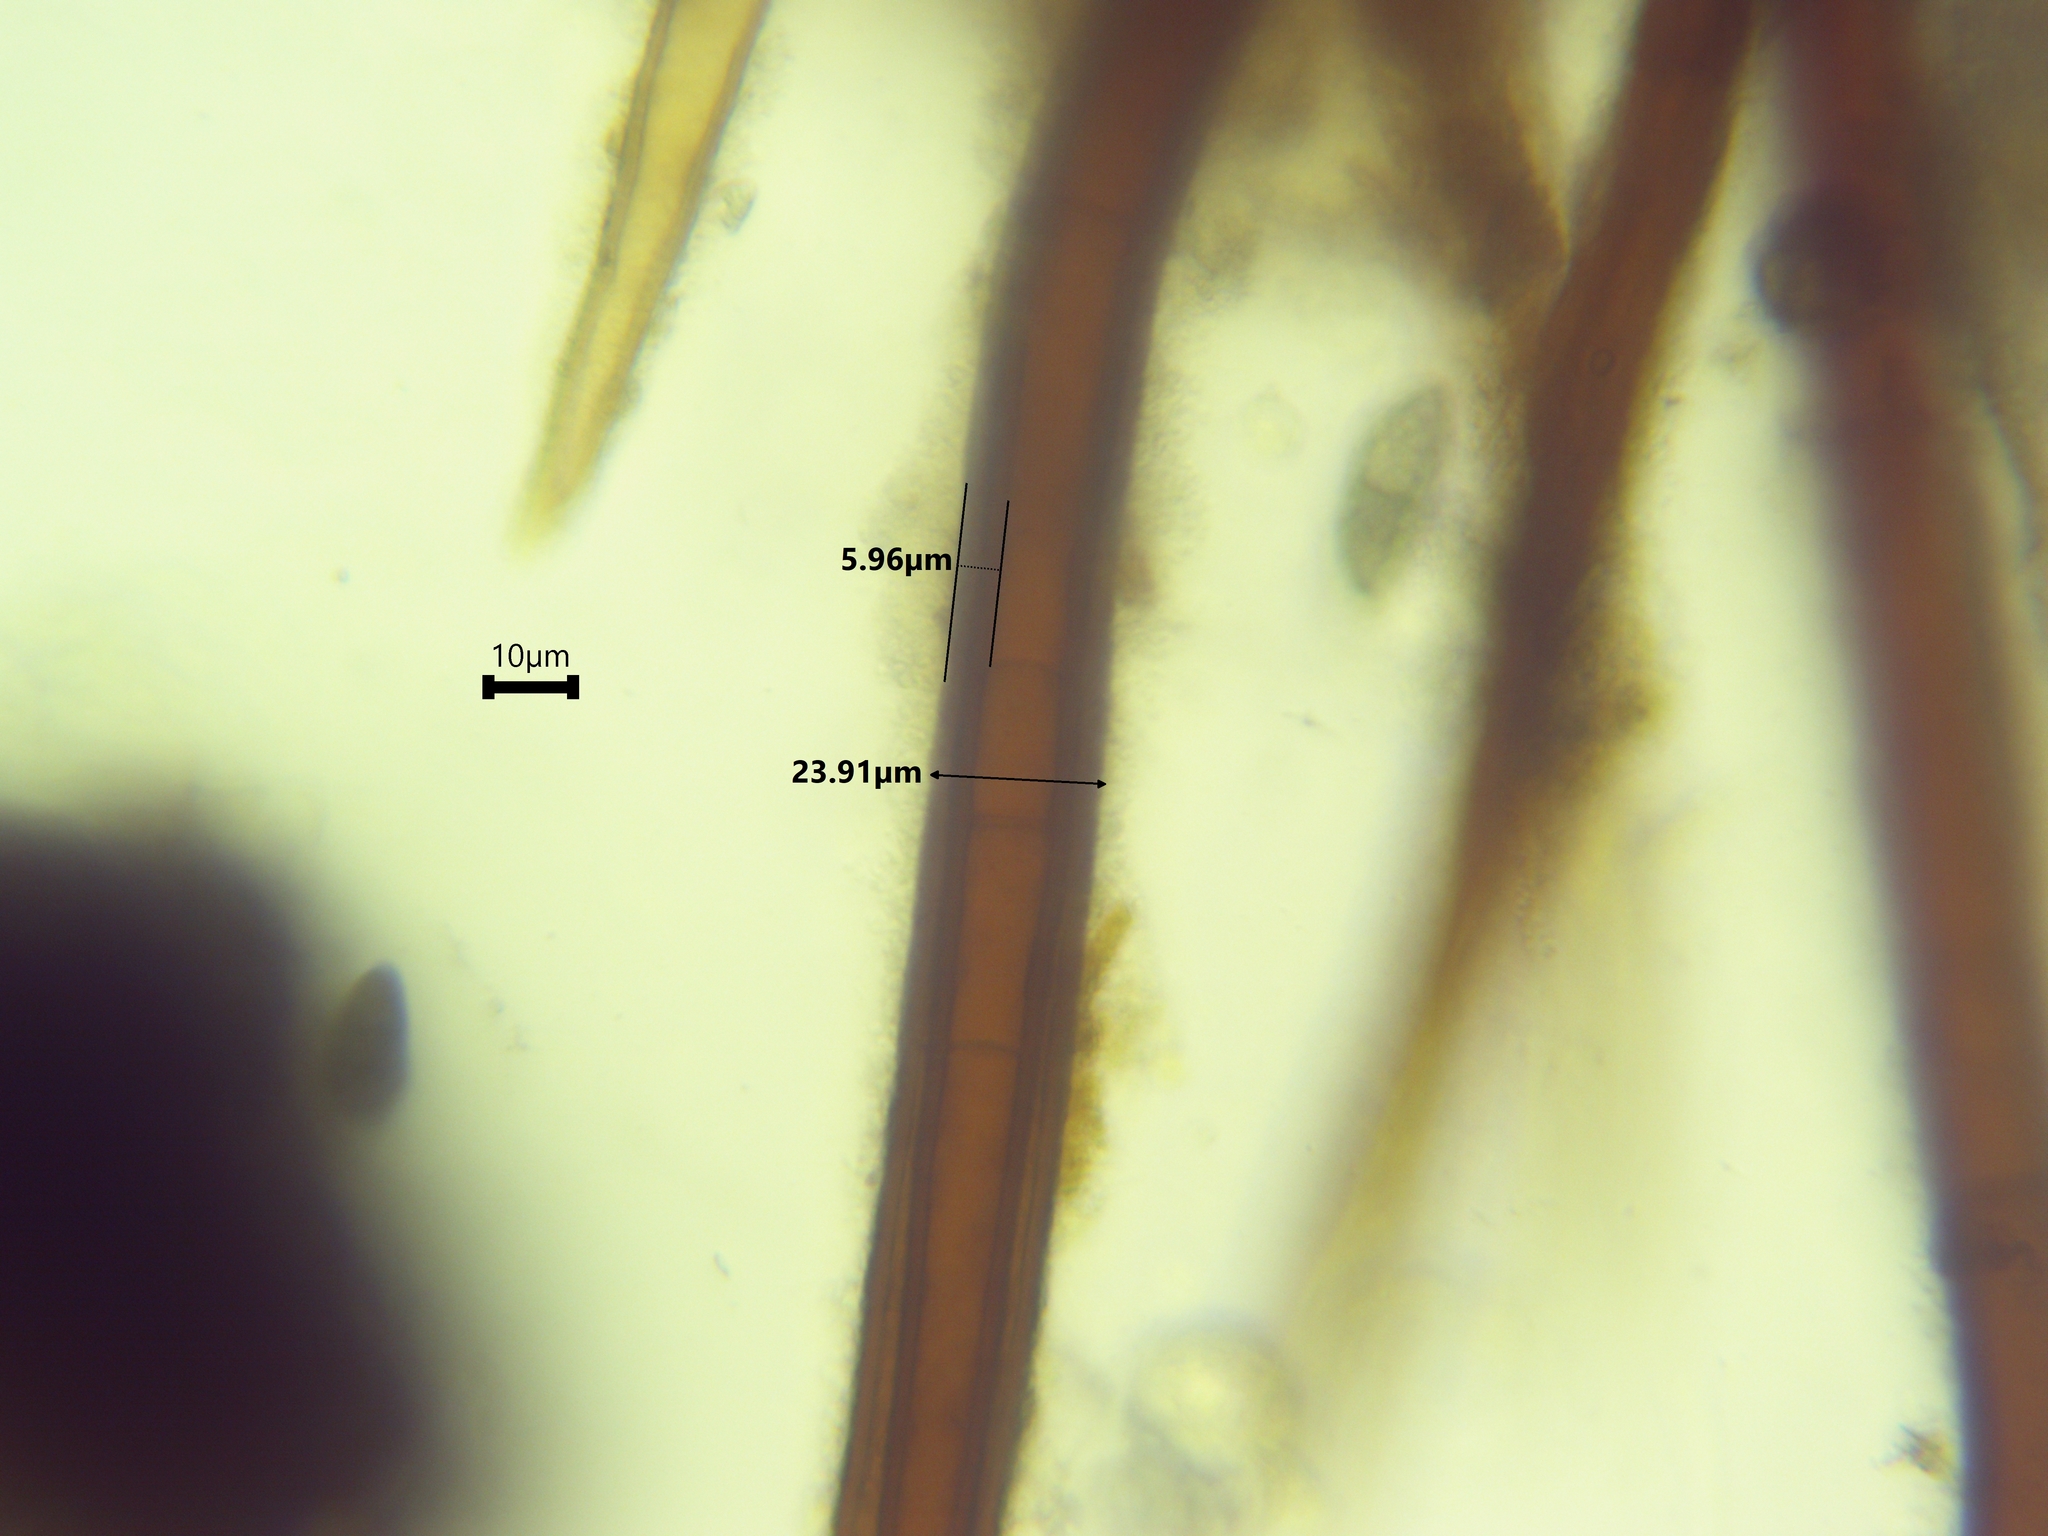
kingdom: Fungi
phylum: Ascomycota
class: Pezizomycetes
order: Pezizales
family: Pyronemataceae
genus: Scutellinia
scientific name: Scutellinia subhirtella
